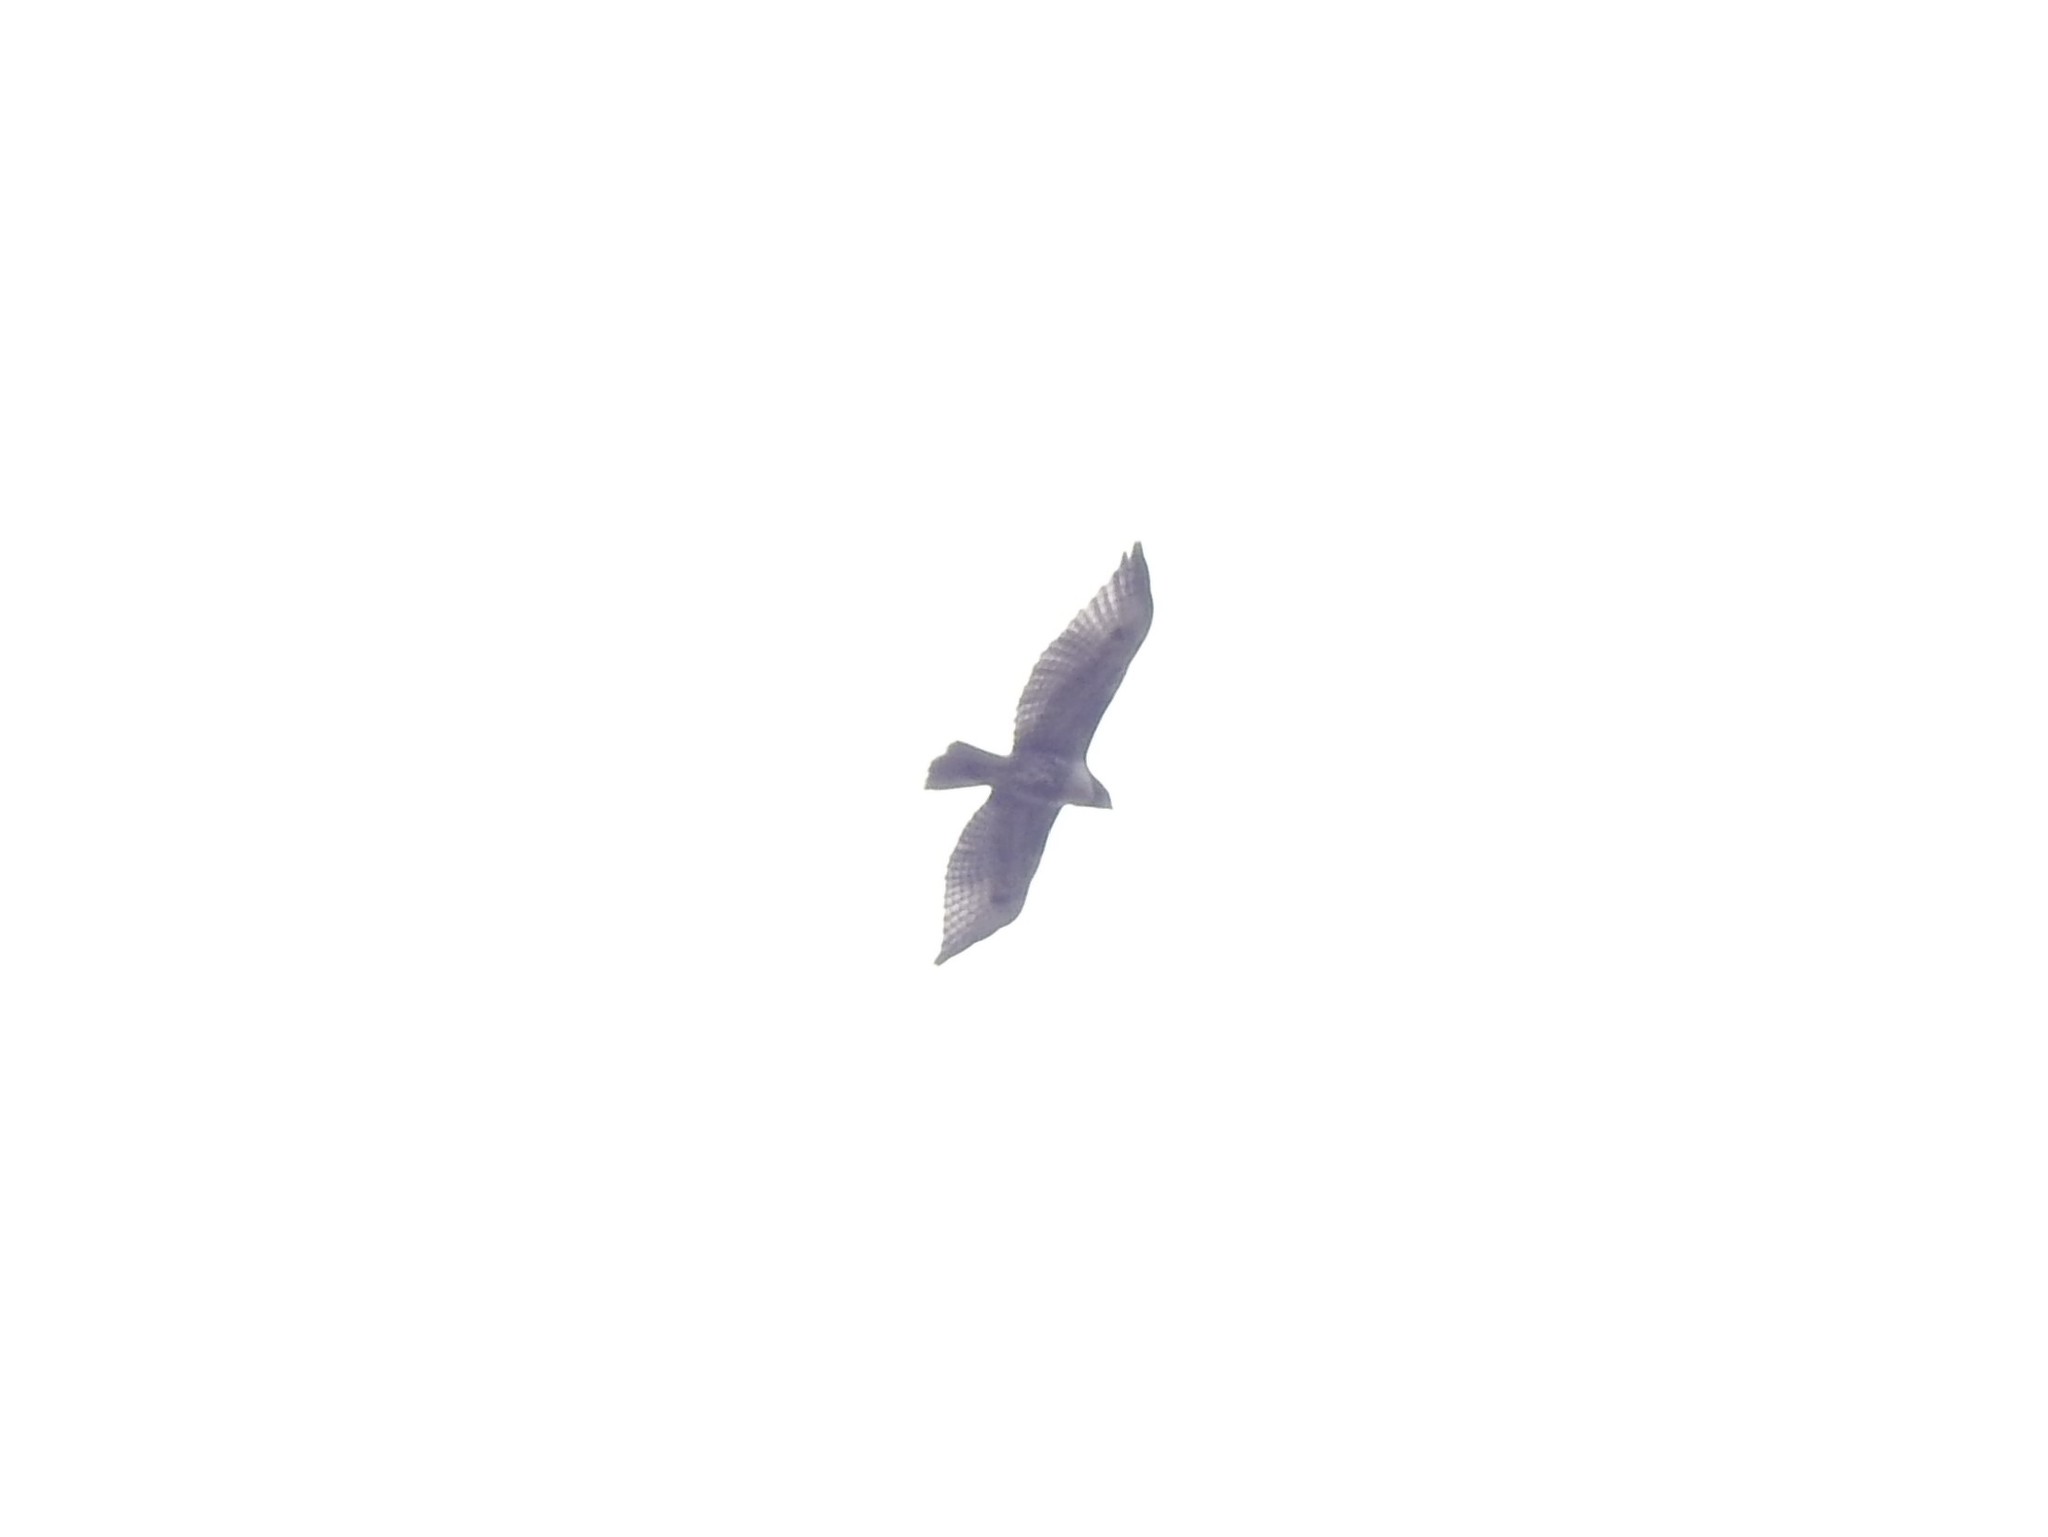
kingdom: Animalia
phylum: Chordata
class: Aves
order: Accipitriformes
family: Accipitridae
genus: Buteo
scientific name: Buteo jamaicensis
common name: Red-tailed hawk
